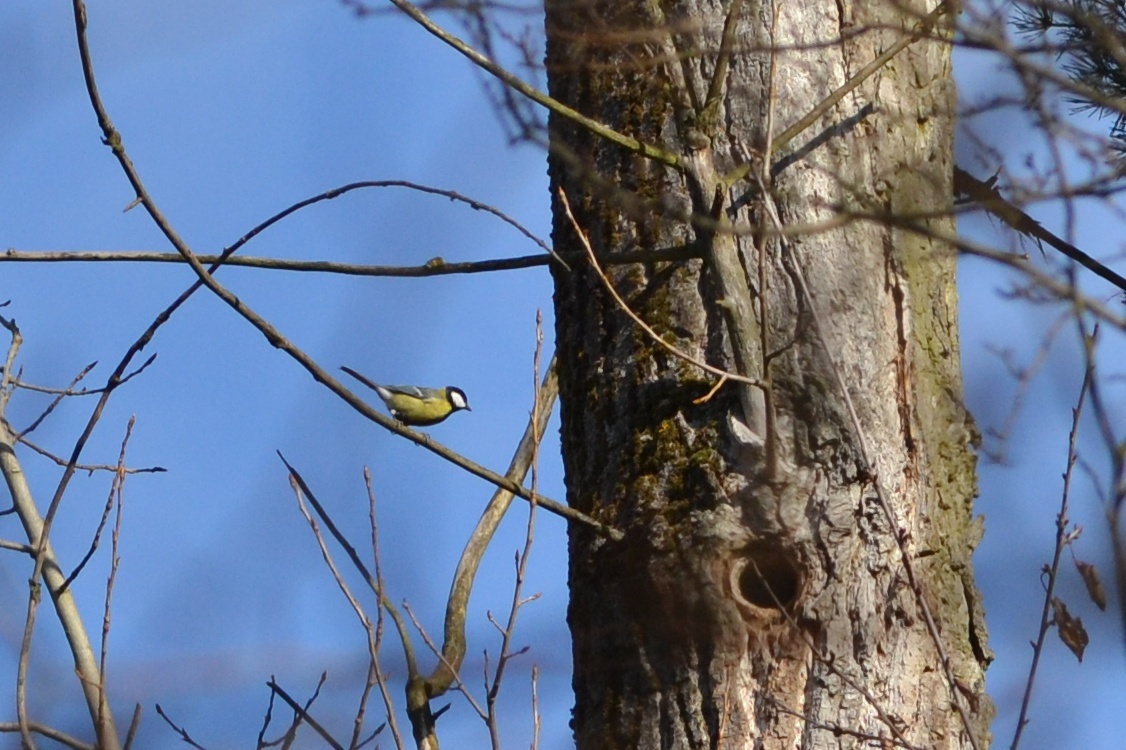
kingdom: Animalia
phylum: Chordata
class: Aves
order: Passeriformes
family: Paridae
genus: Parus
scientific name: Parus major
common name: Great tit
